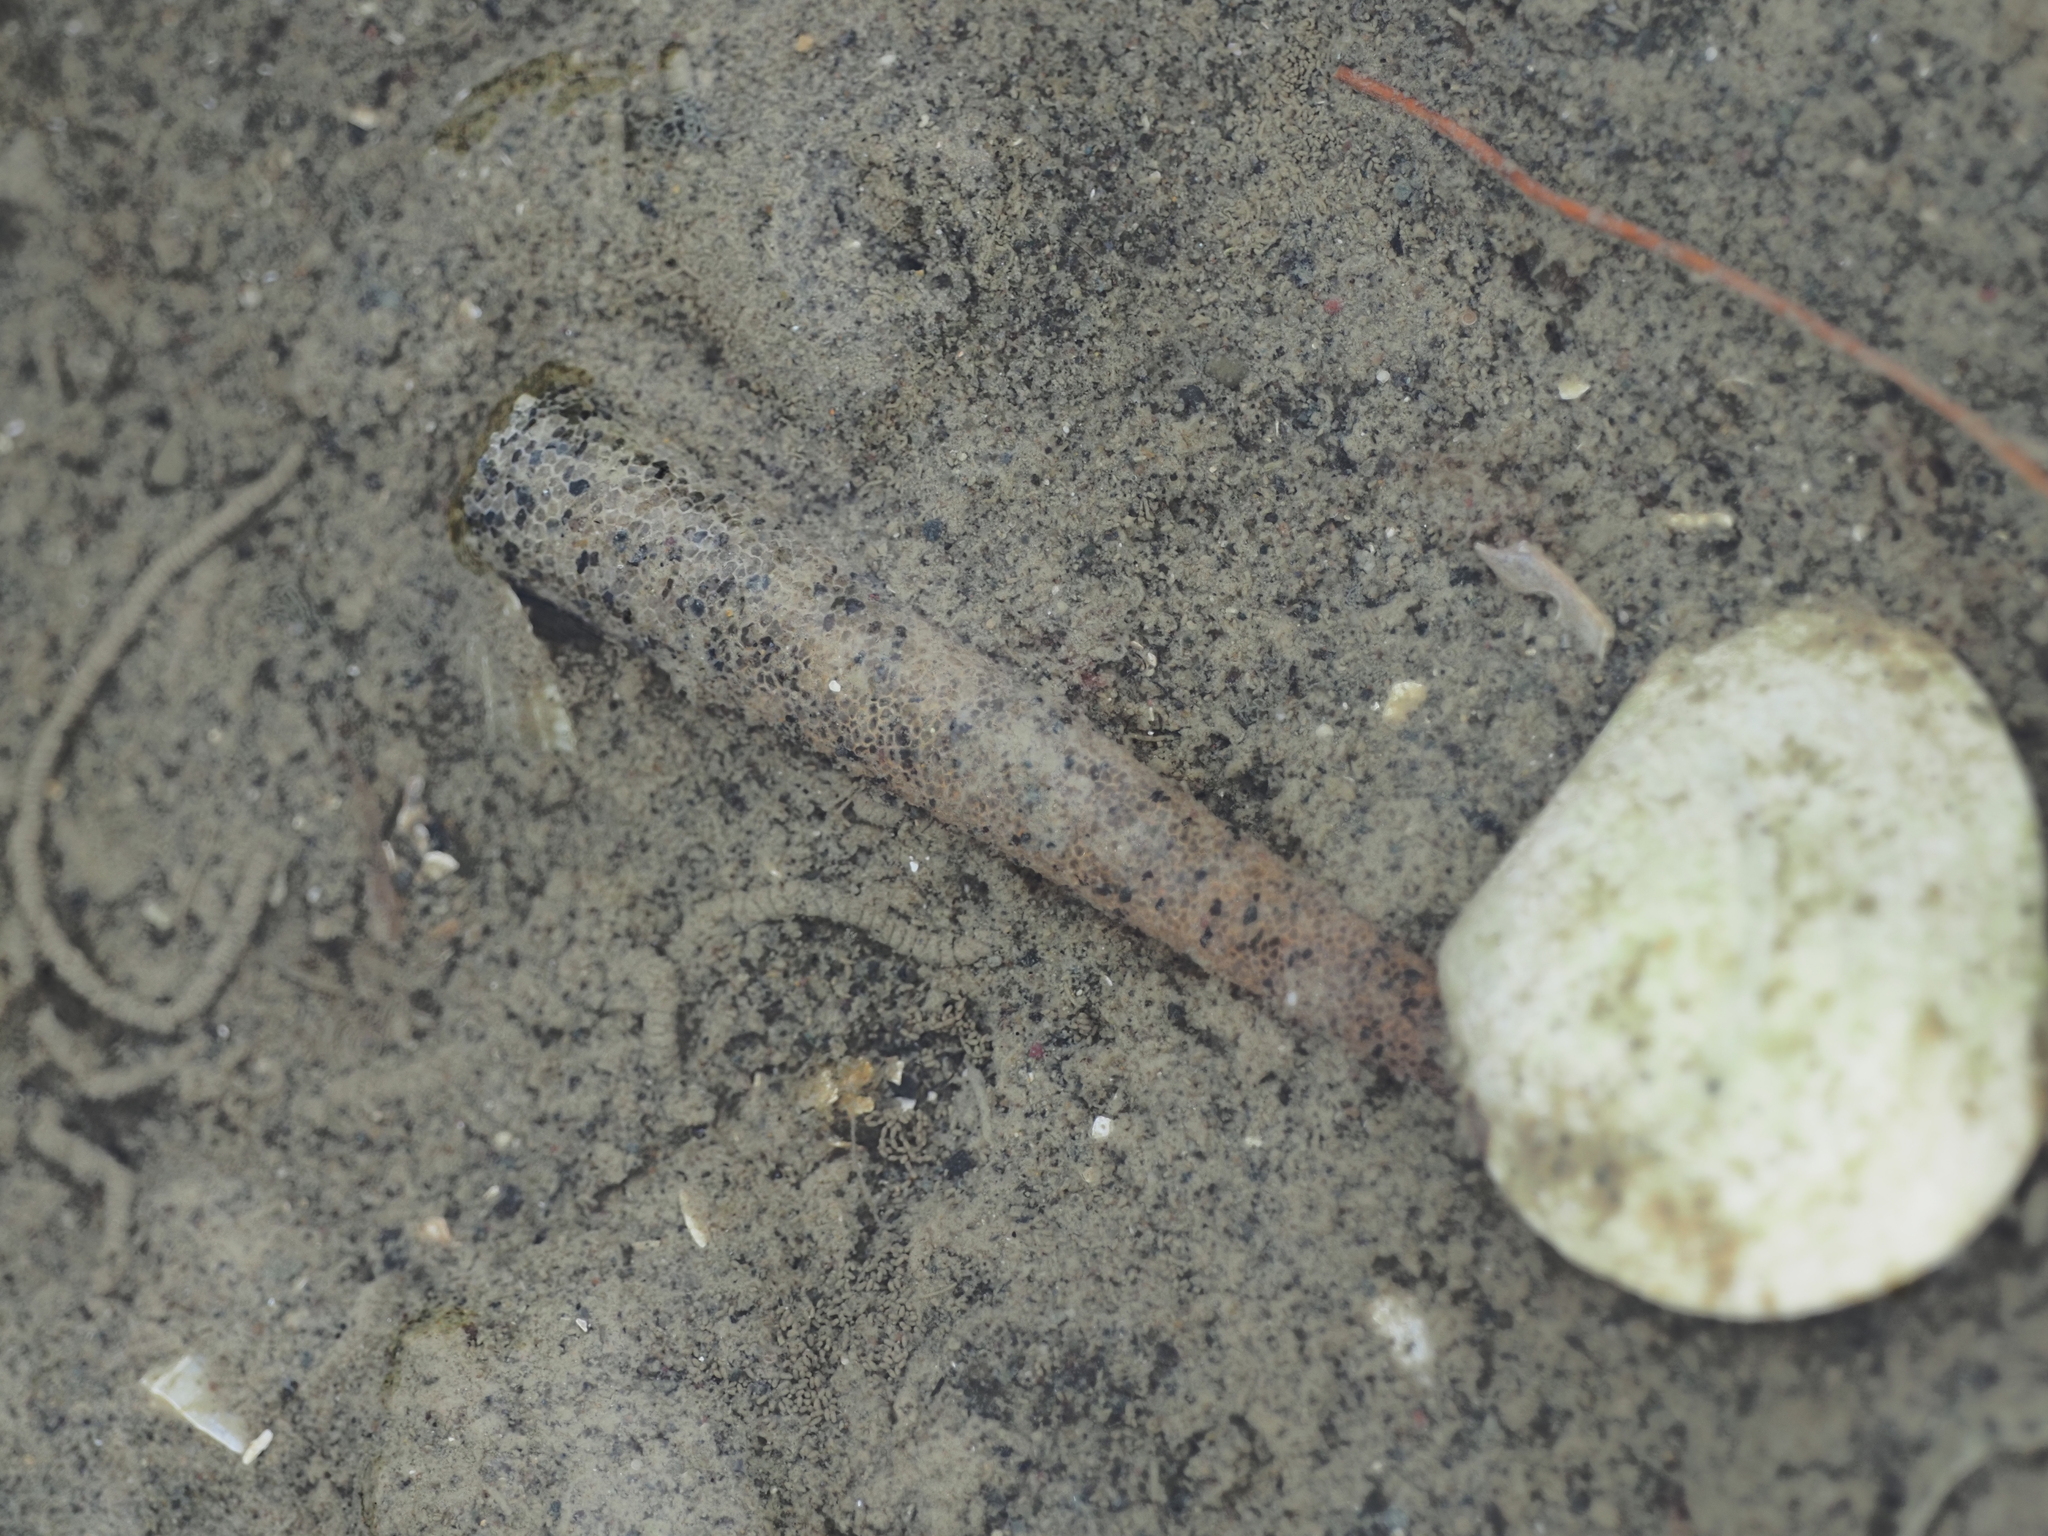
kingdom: Animalia
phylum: Annelida
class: Polychaeta
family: Pectinariidae
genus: Lagis
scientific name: Lagis australis
